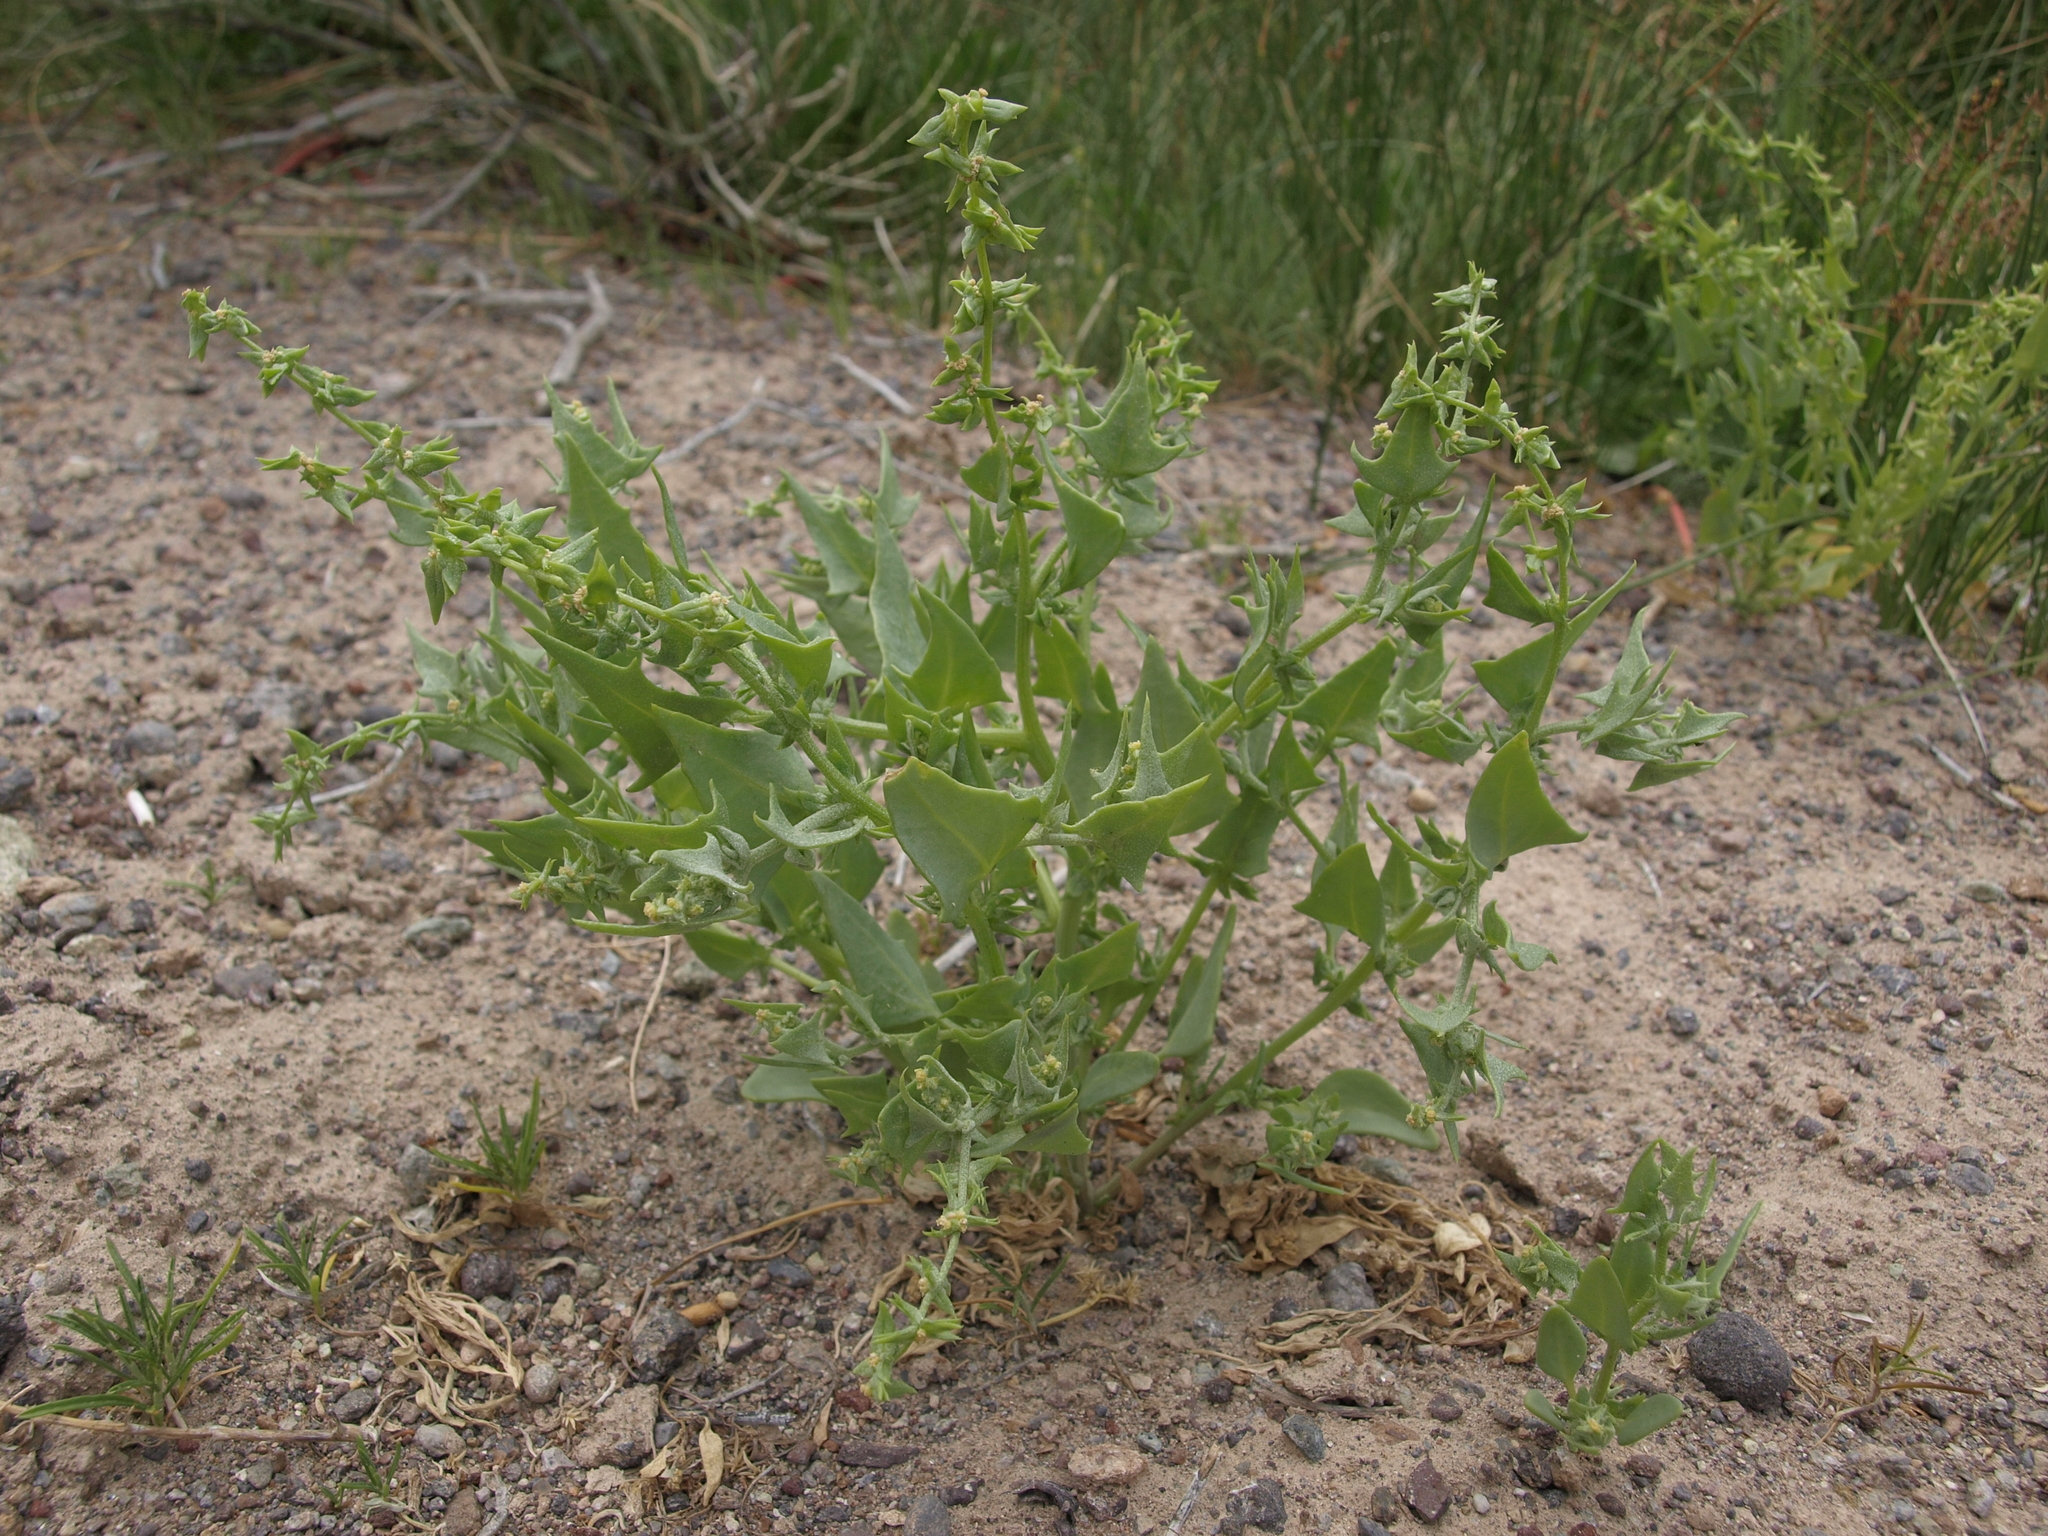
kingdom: Plantae
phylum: Tracheophyta
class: Magnoliopsida
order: Caryophyllales
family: Amaranthaceae
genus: Stutzia
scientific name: Stutzia covillei
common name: Coville's orach
